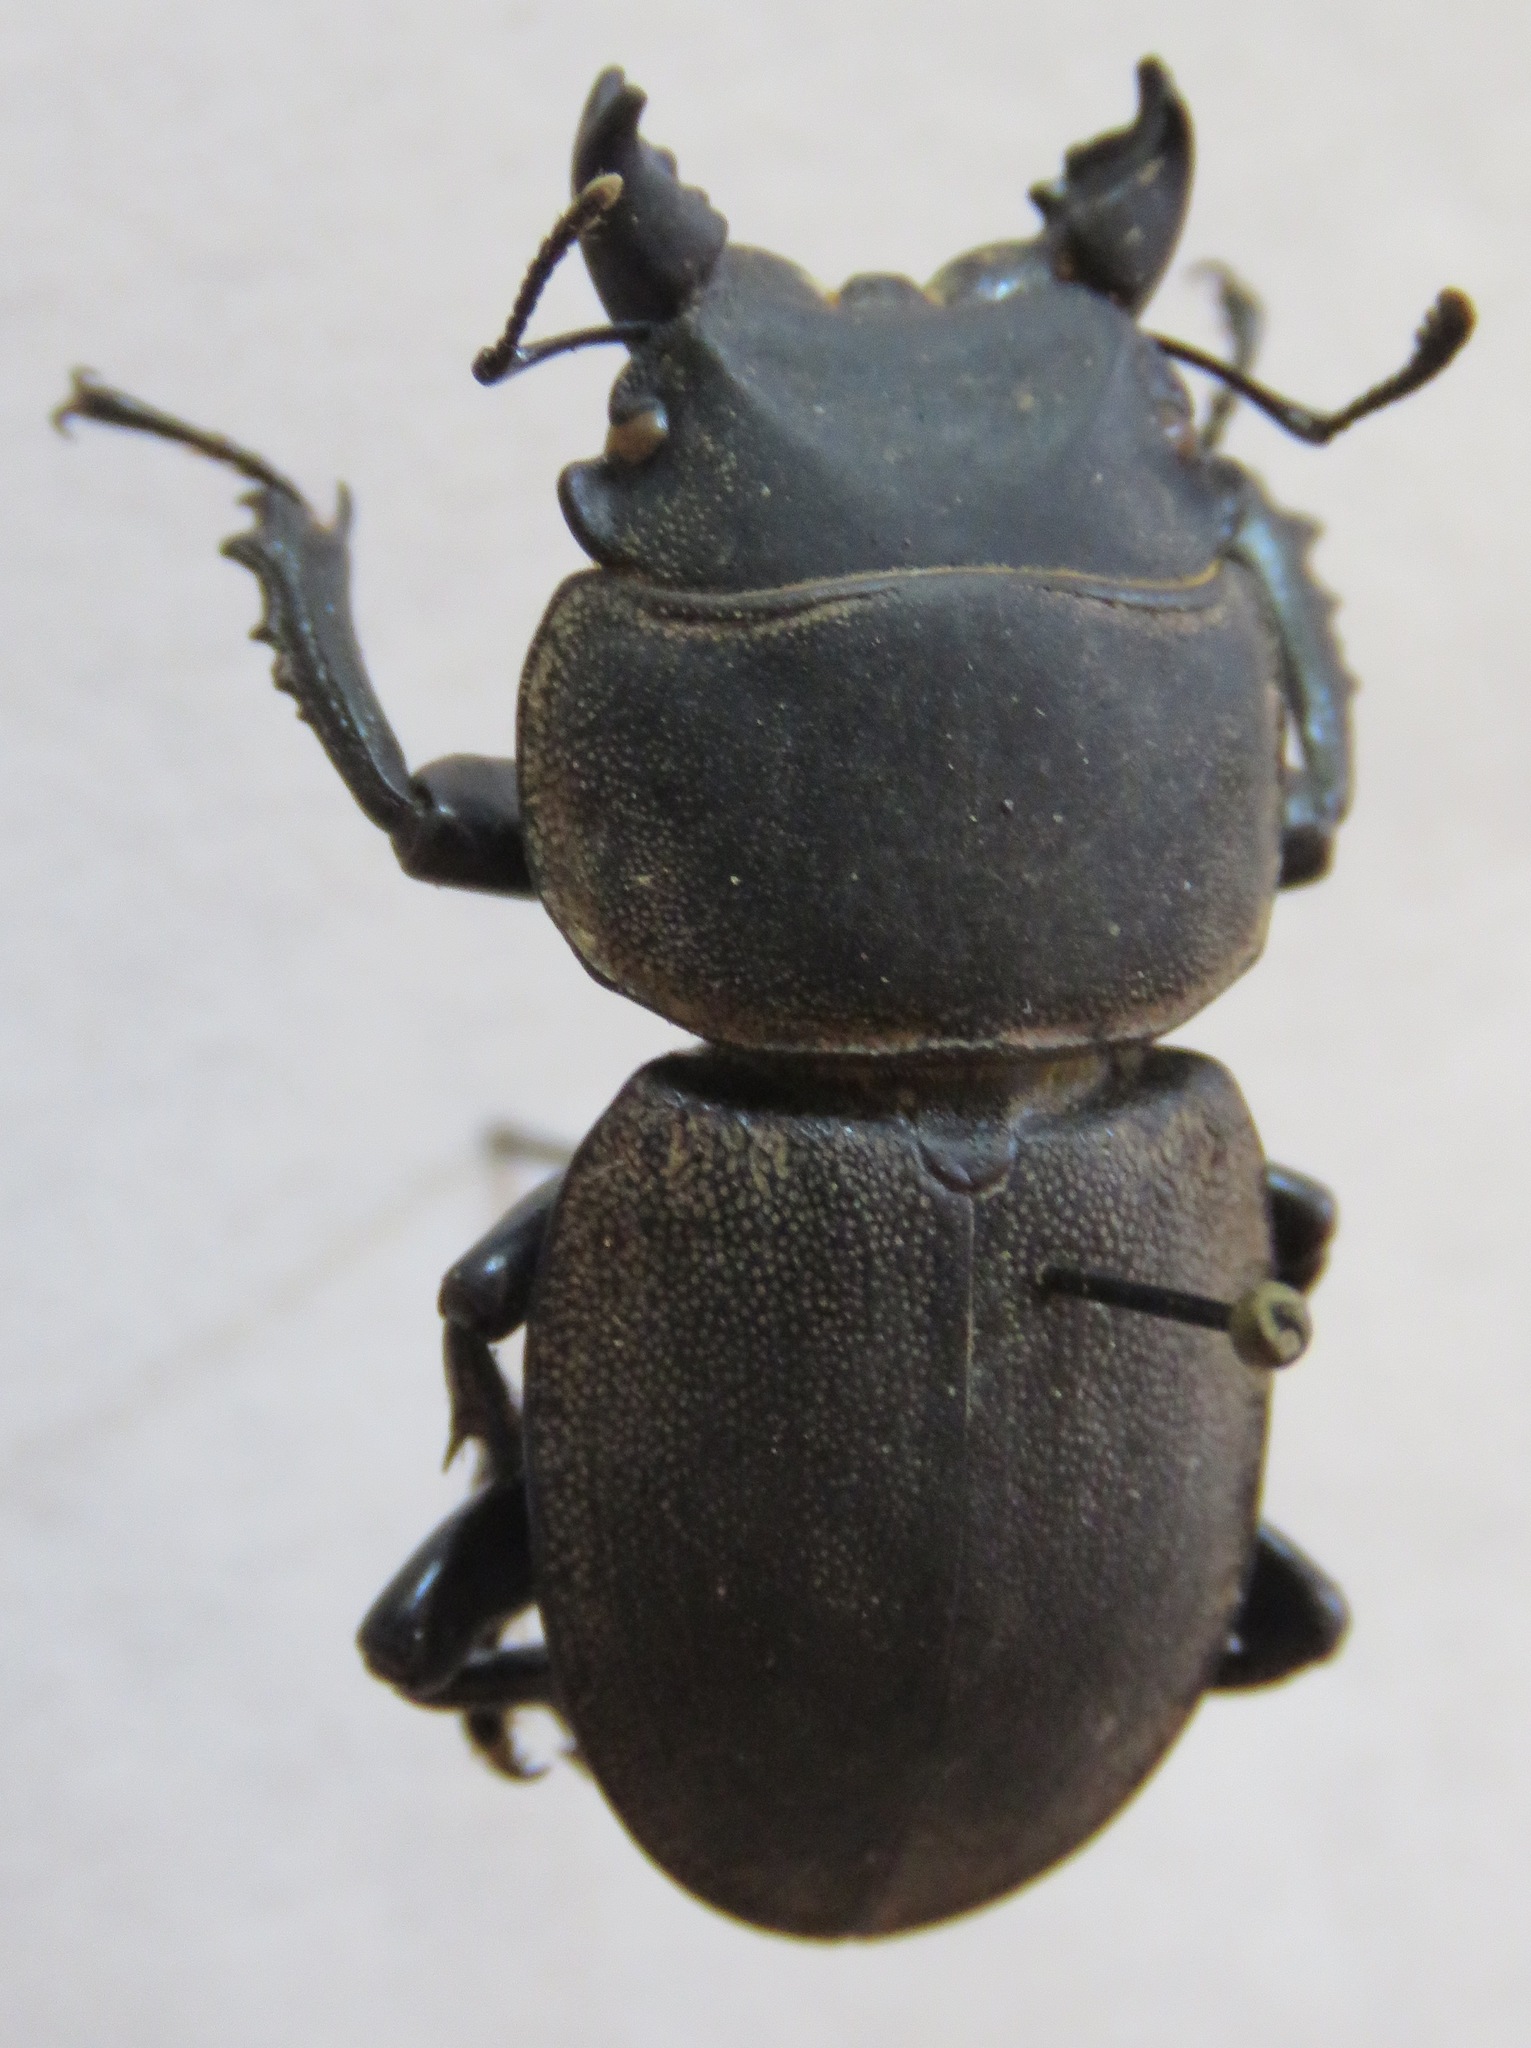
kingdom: Animalia
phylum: Arthropoda
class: Insecta
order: Coleoptera
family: Lucanidae
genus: Apterodorcus
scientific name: Apterodorcus bacchus
